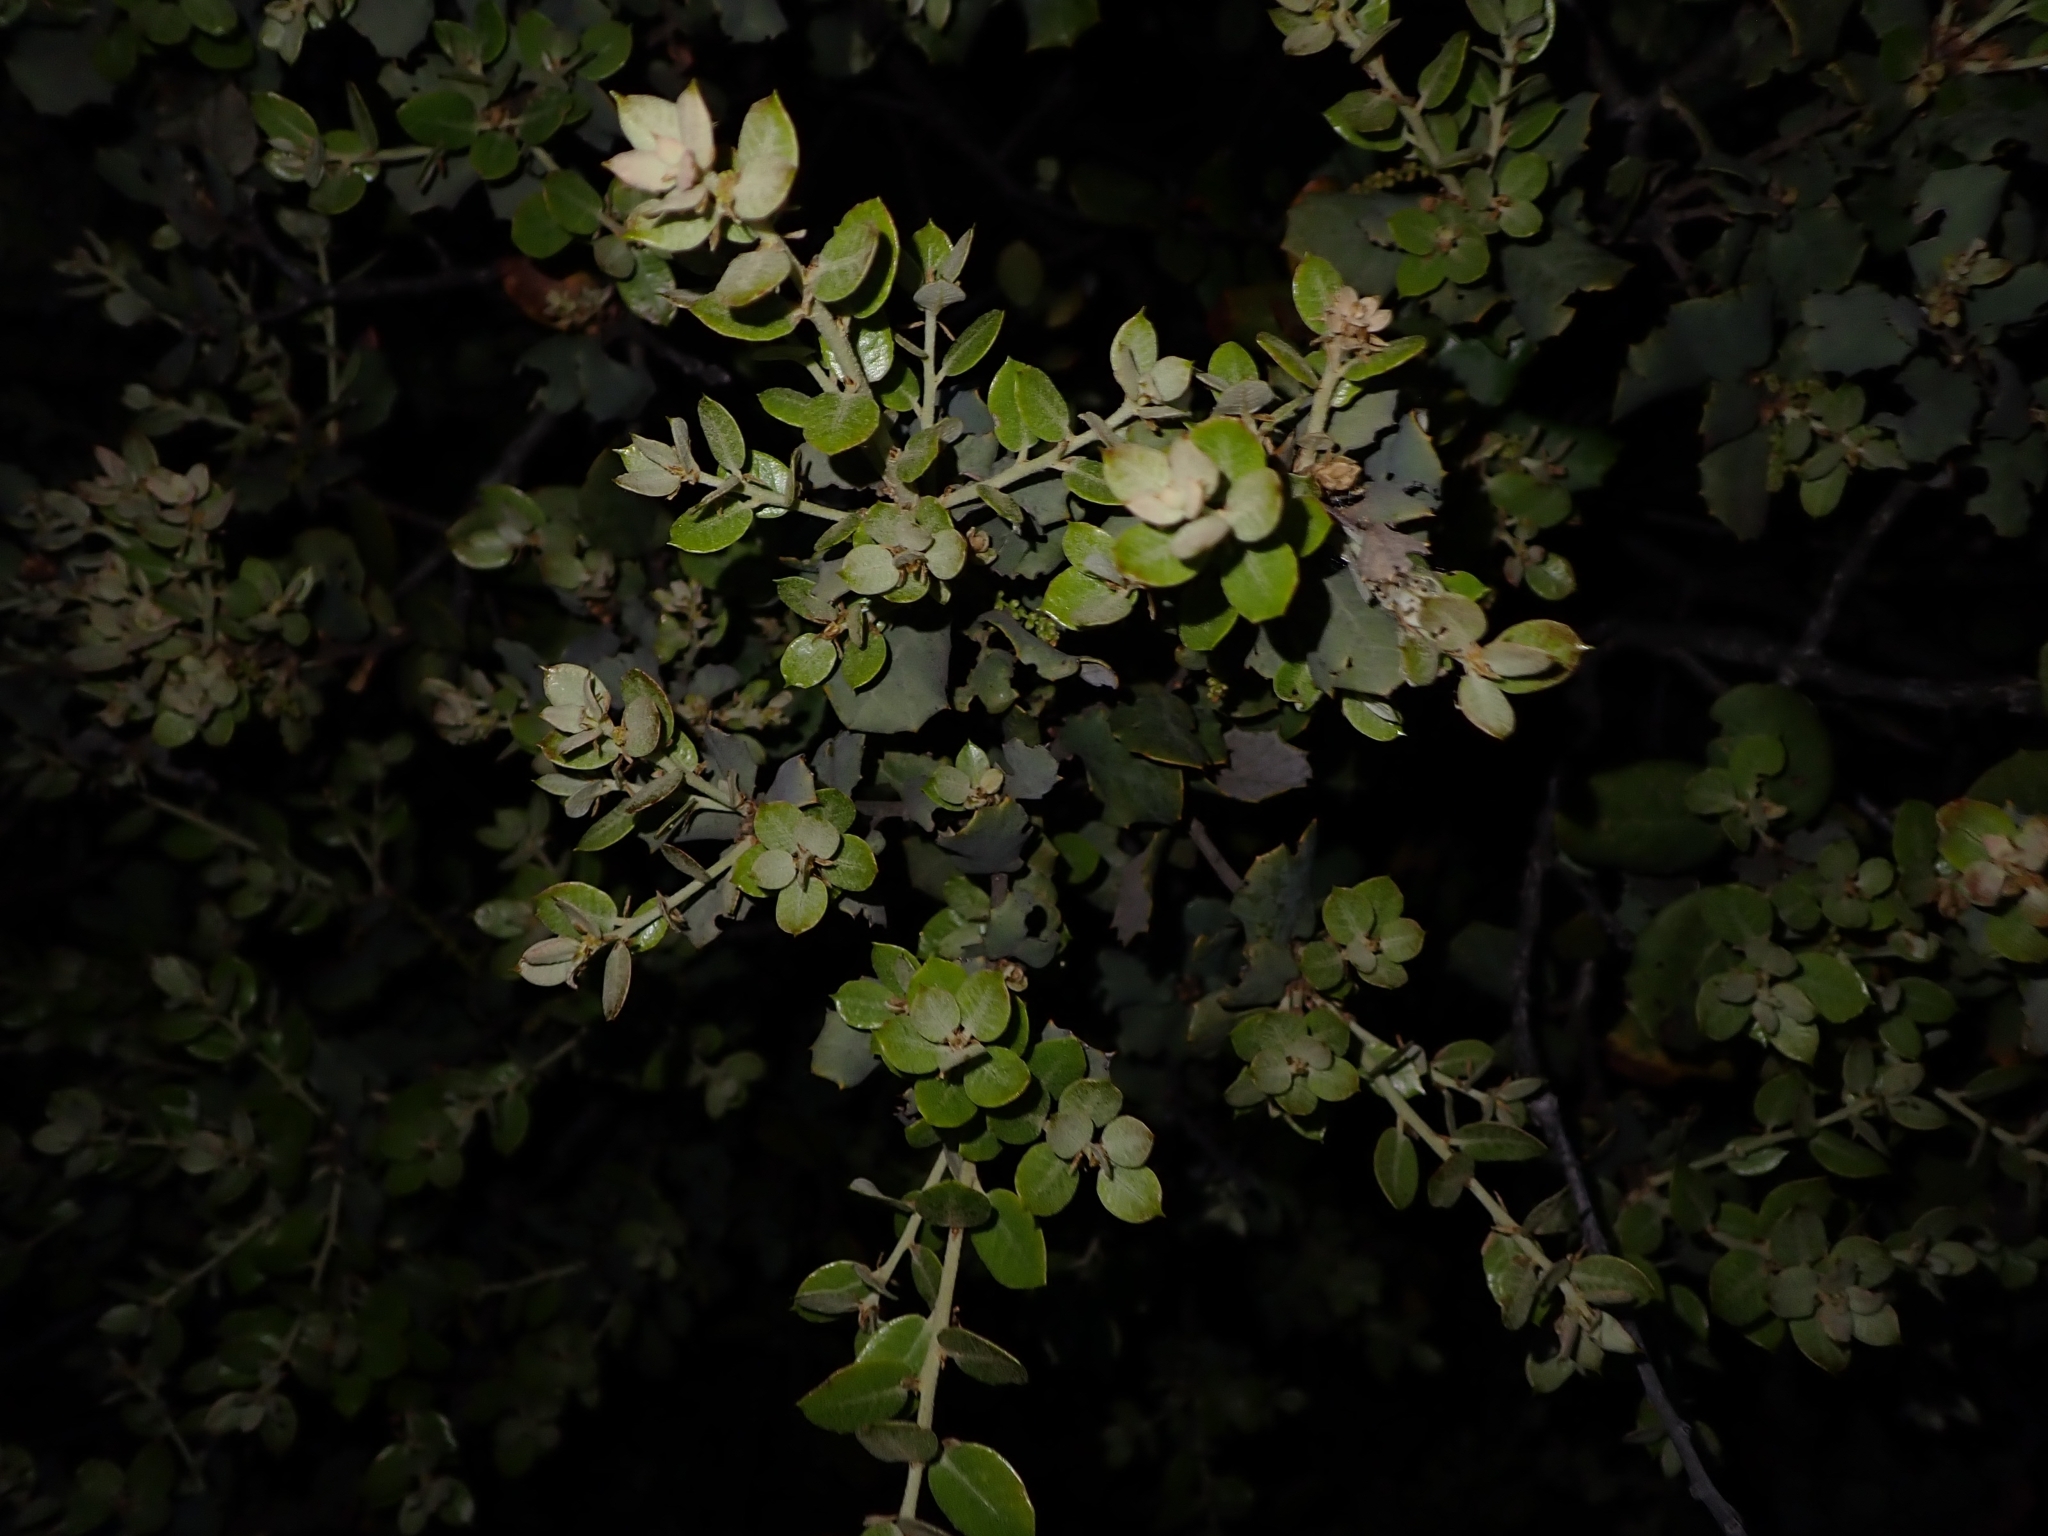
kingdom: Plantae
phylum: Tracheophyta
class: Magnoliopsida
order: Fagales
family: Fagaceae
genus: Quercus
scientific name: Quercus rotundifolia
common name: Holm oak
